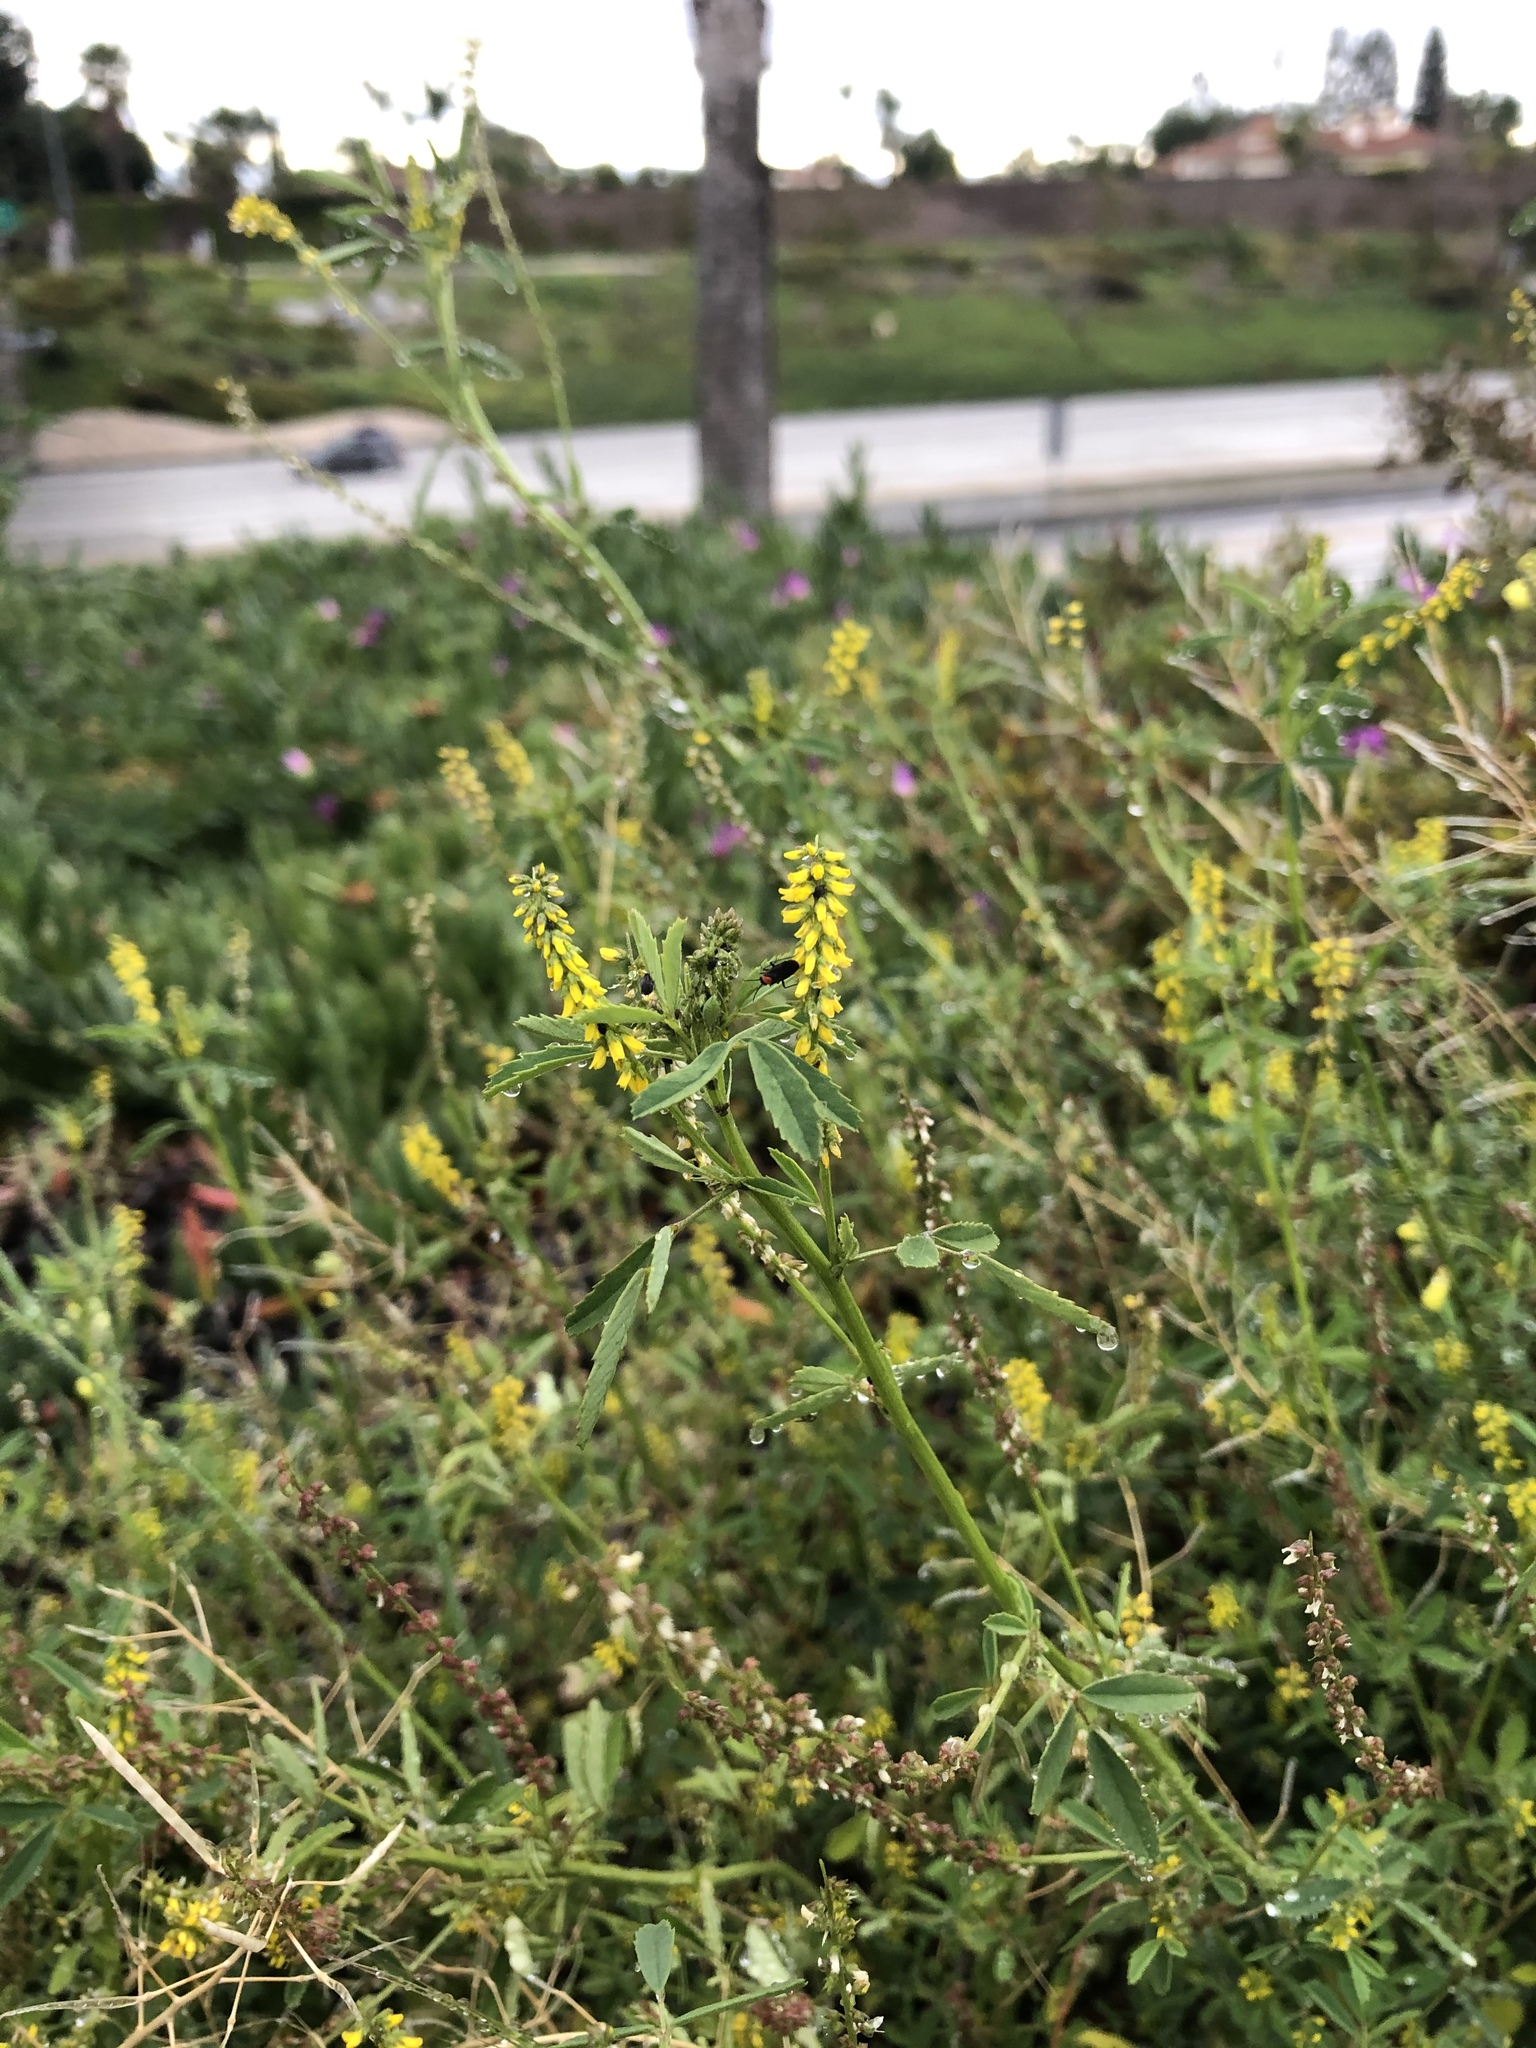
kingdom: Plantae
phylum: Tracheophyta
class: Magnoliopsida
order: Fabales
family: Fabaceae
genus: Melilotus
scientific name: Melilotus indicus
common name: Small melilot
